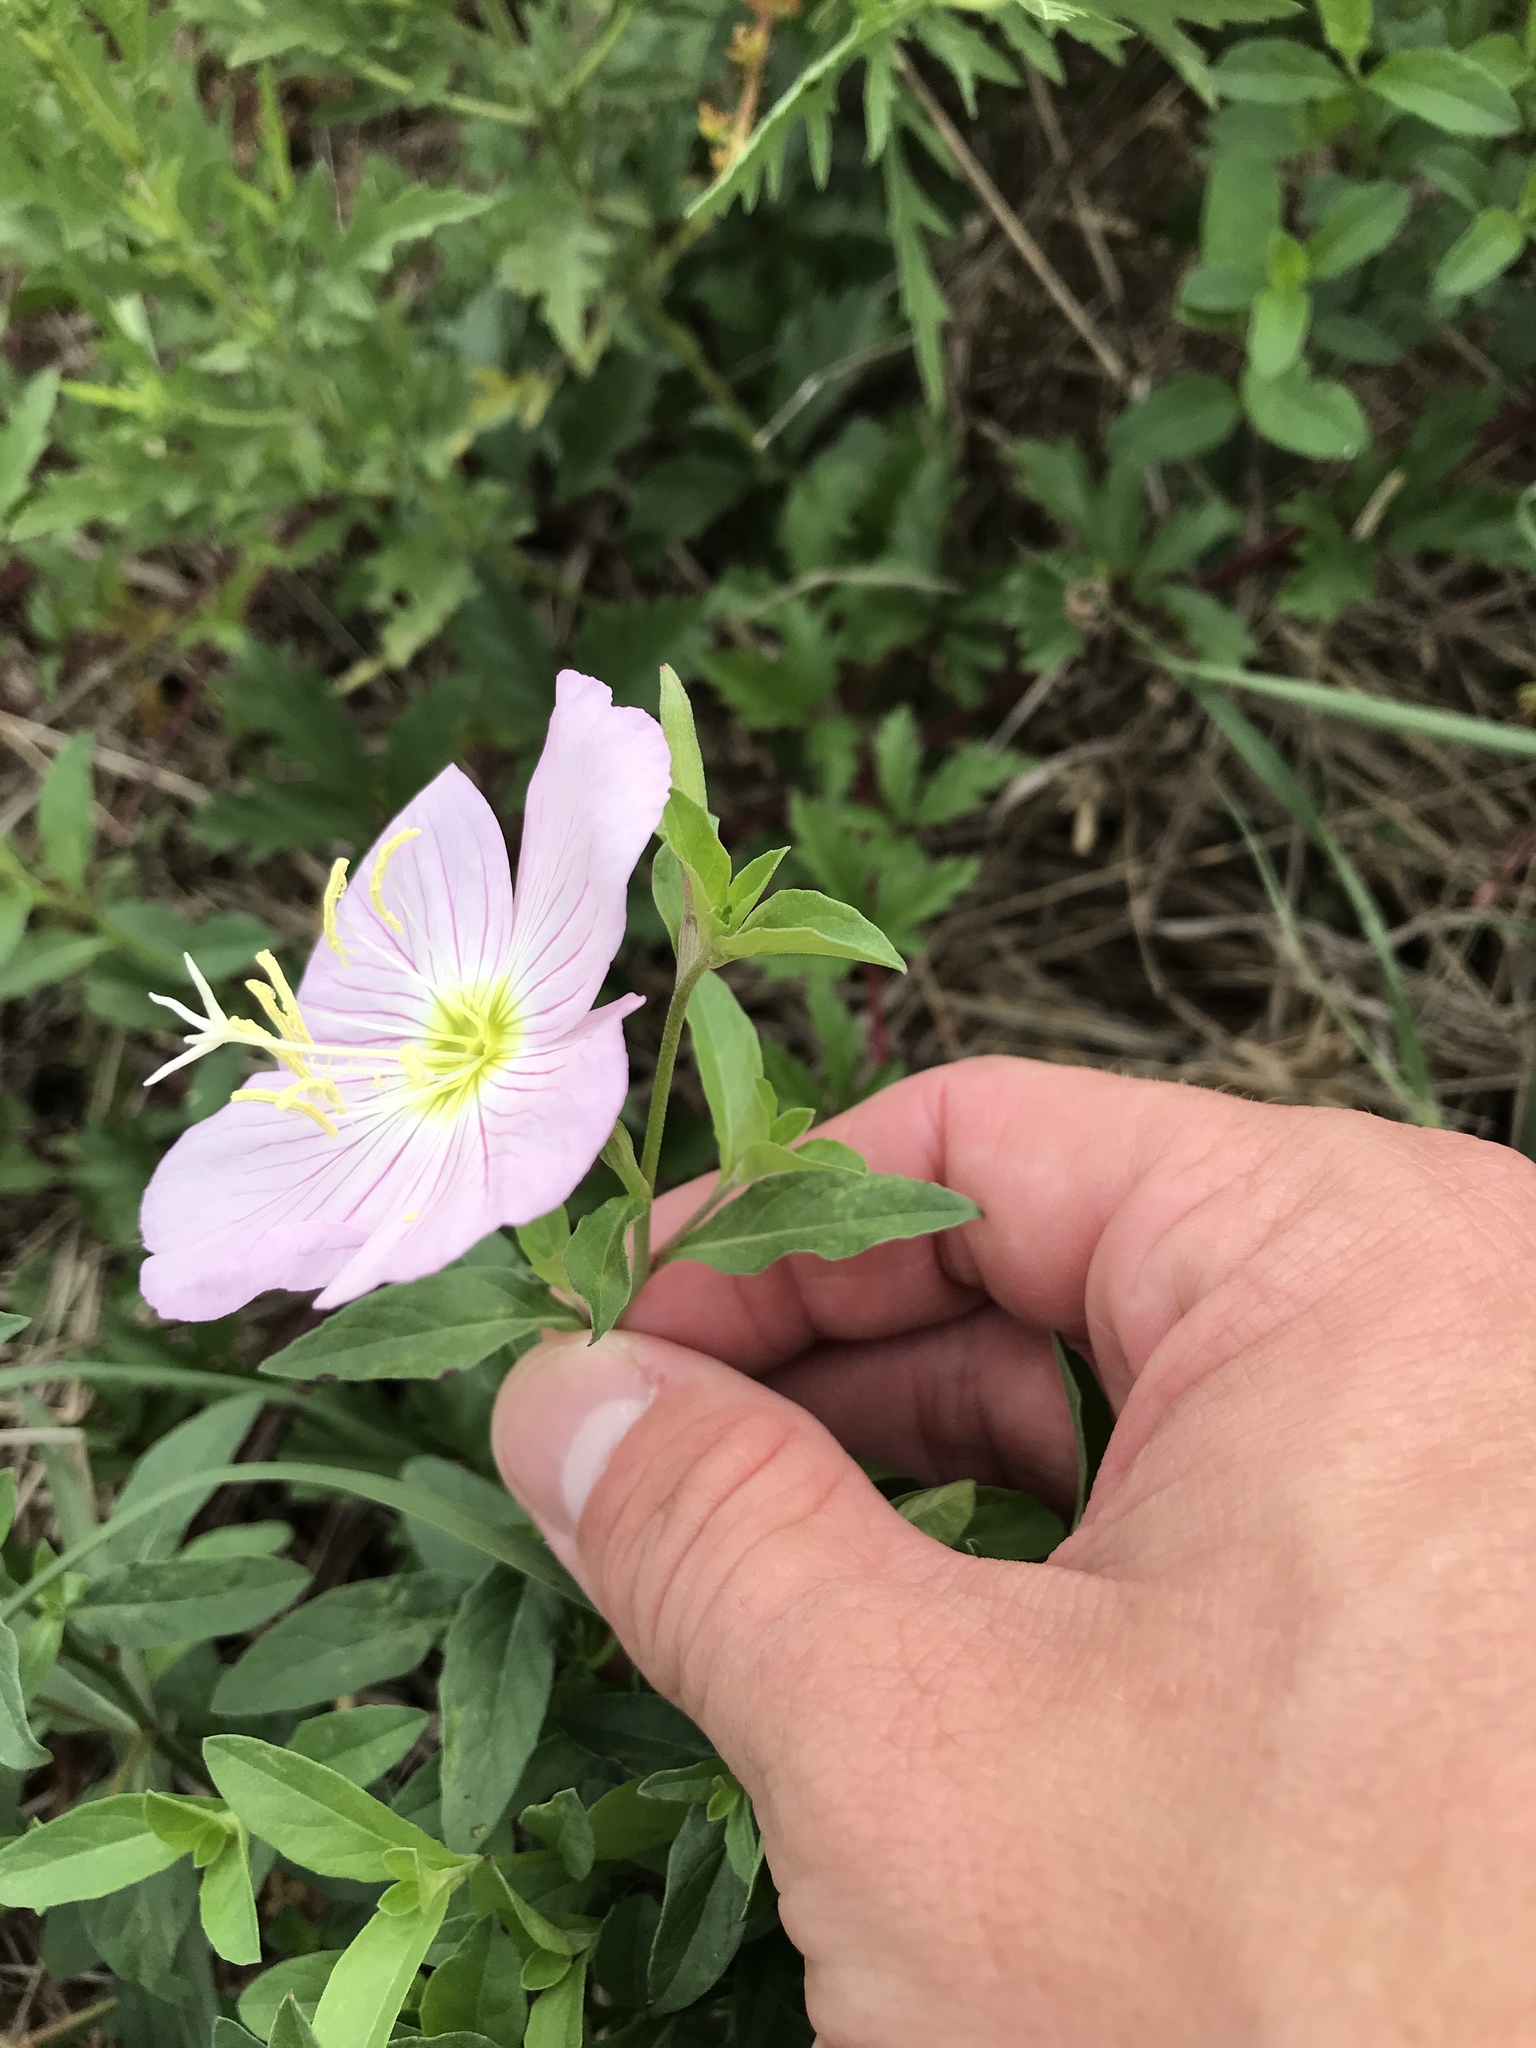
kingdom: Plantae
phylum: Tracheophyta
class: Magnoliopsida
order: Myrtales
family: Onagraceae
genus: Oenothera
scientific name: Oenothera speciosa
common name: White evening-primrose
